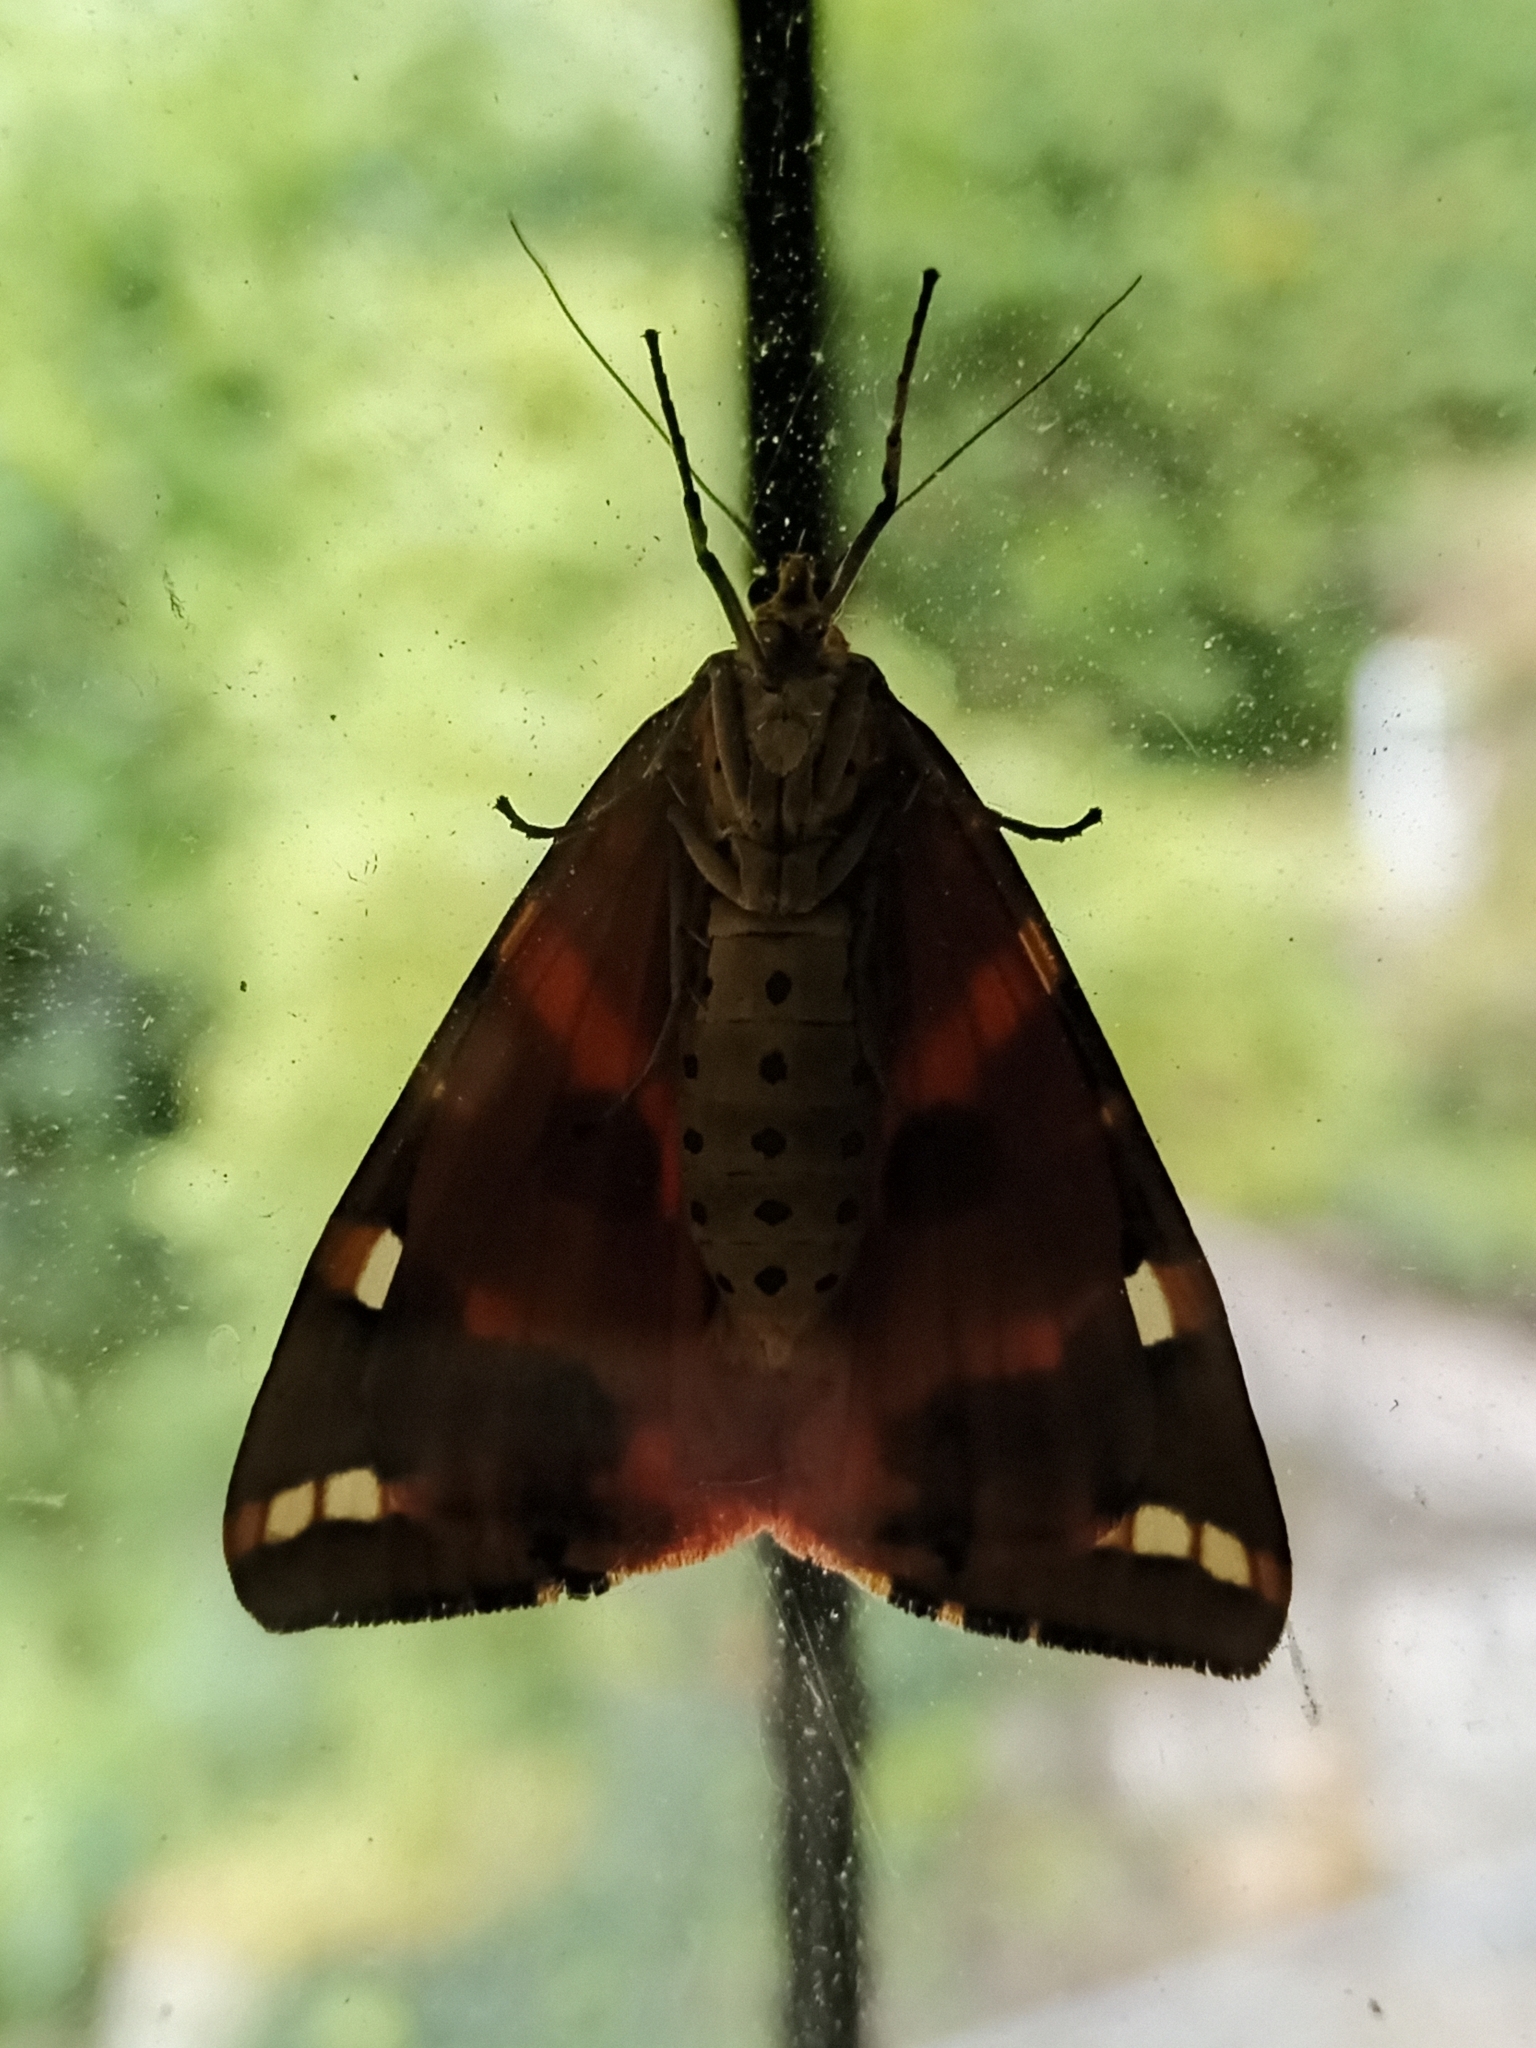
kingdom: Animalia
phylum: Arthropoda
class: Insecta
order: Lepidoptera
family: Erebidae
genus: Euplagia
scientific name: Euplagia quadripunctaria
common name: Jersey tiger
